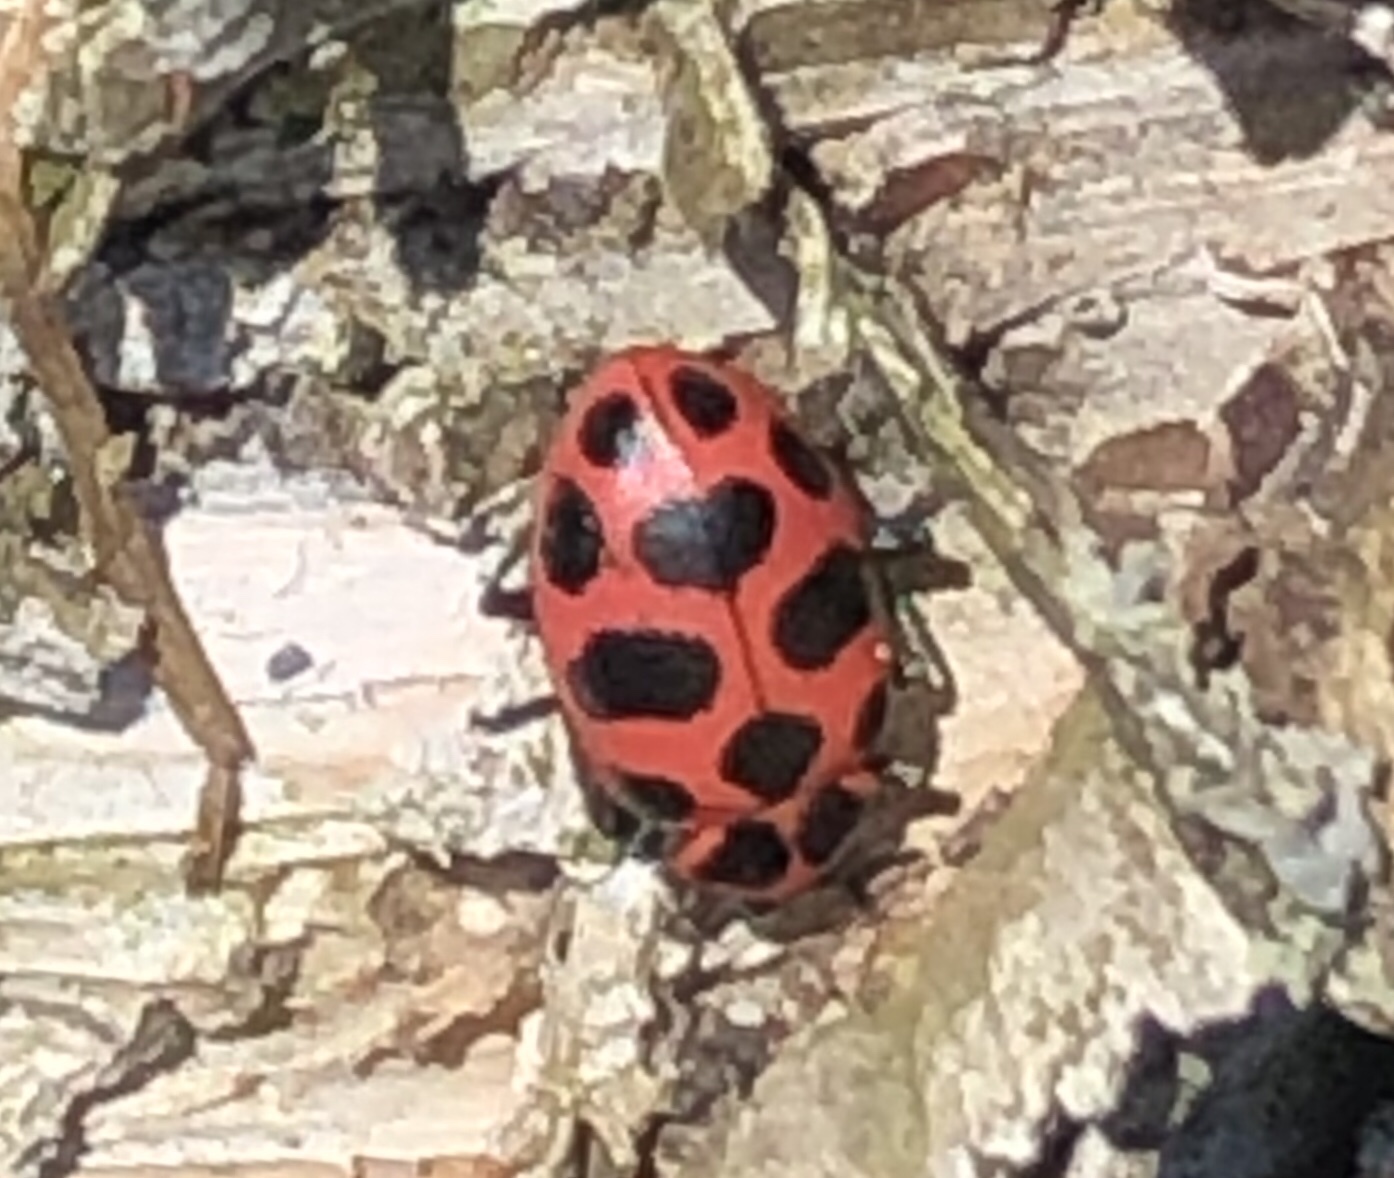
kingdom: Animalia
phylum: Arthropoda
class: Insecta
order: Coleoptera
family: Coccinellidae
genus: Coleomegilla
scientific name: Coleomegilla maculata
